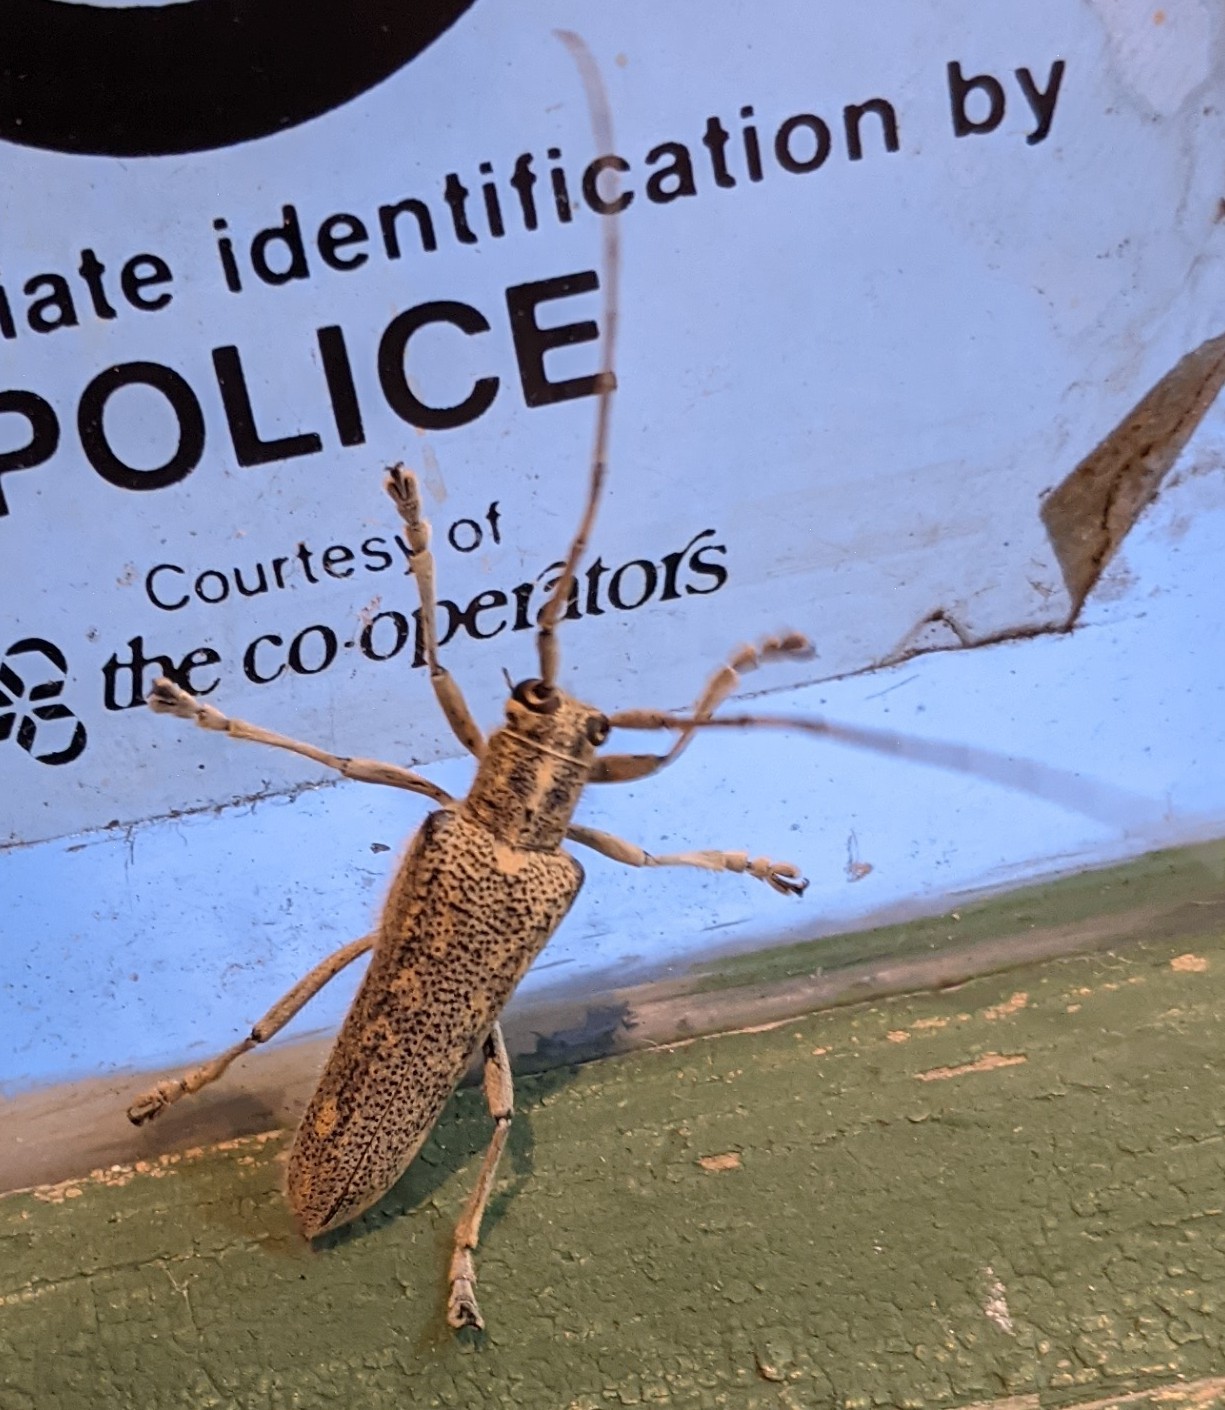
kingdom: Animalia
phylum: Arthropoda
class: Insecta
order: Coleoptera
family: Cerambycidae
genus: Saperda
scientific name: Saperda calcarata
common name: Poplar borer
